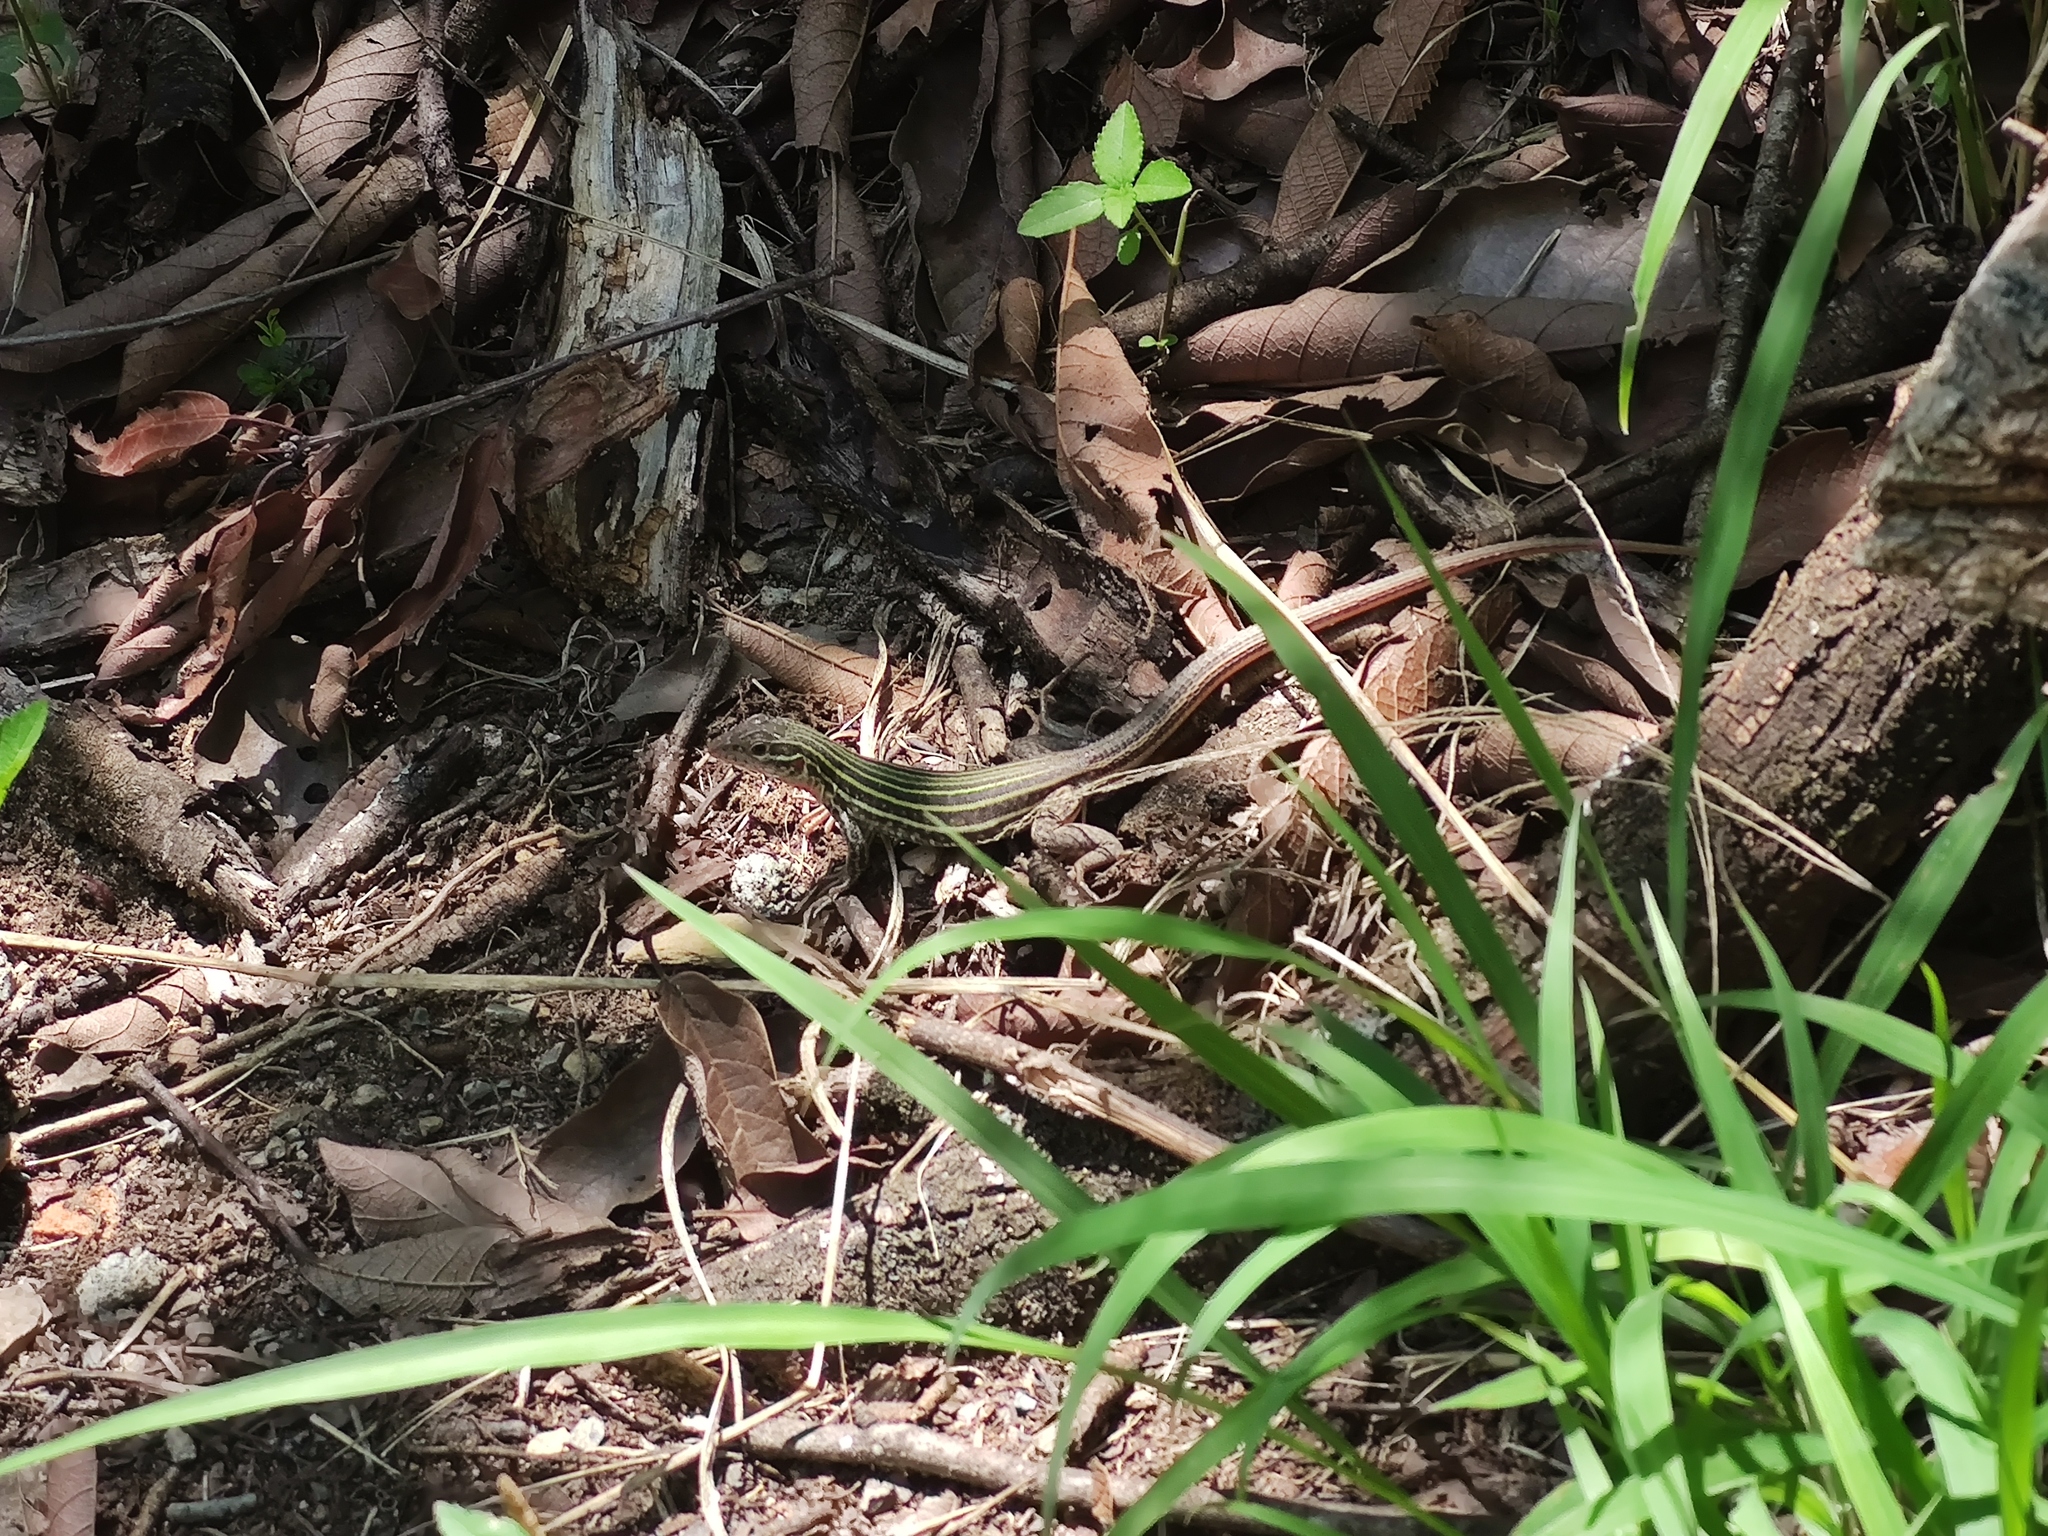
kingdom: Animalia
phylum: Chordata
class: Squamata
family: Teiidae
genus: Aspidoscelis
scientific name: Aspidoscelis gularis
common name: Eastern spotted whiptail
